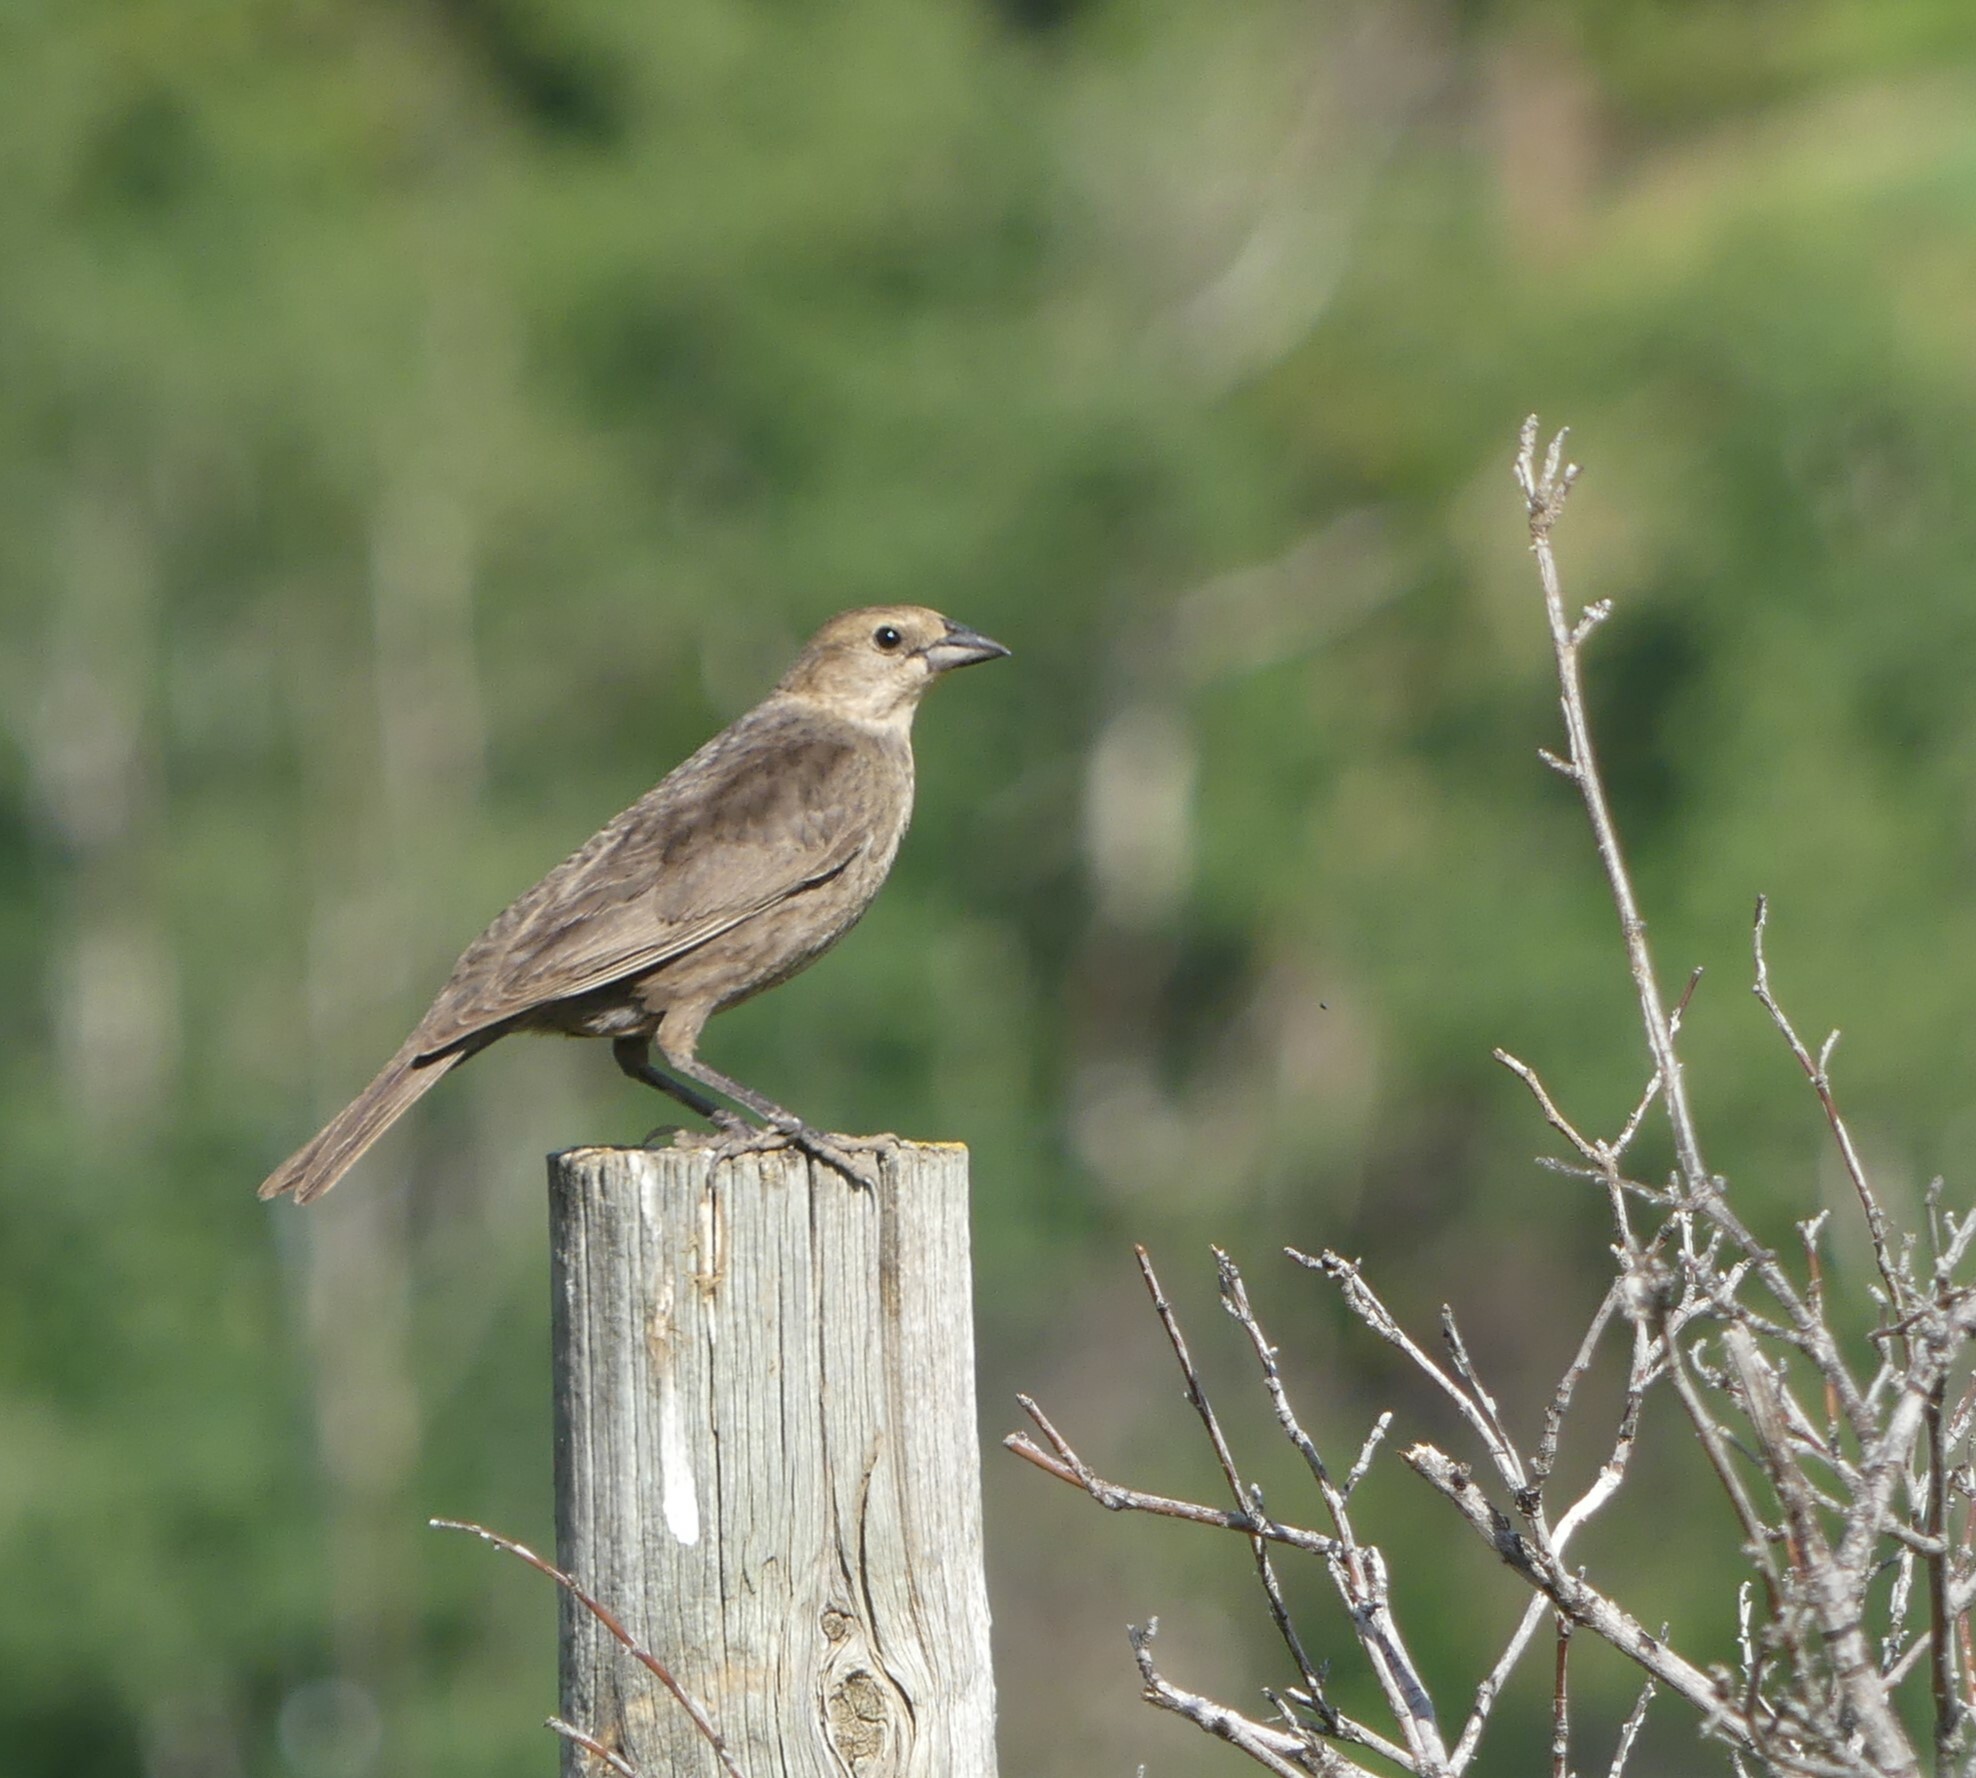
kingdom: Animalia
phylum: Chordata
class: Aves
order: Passeriformes
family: Icteridae
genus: Molothrus
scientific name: Molothrus ater
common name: Brown-headed cowbird
